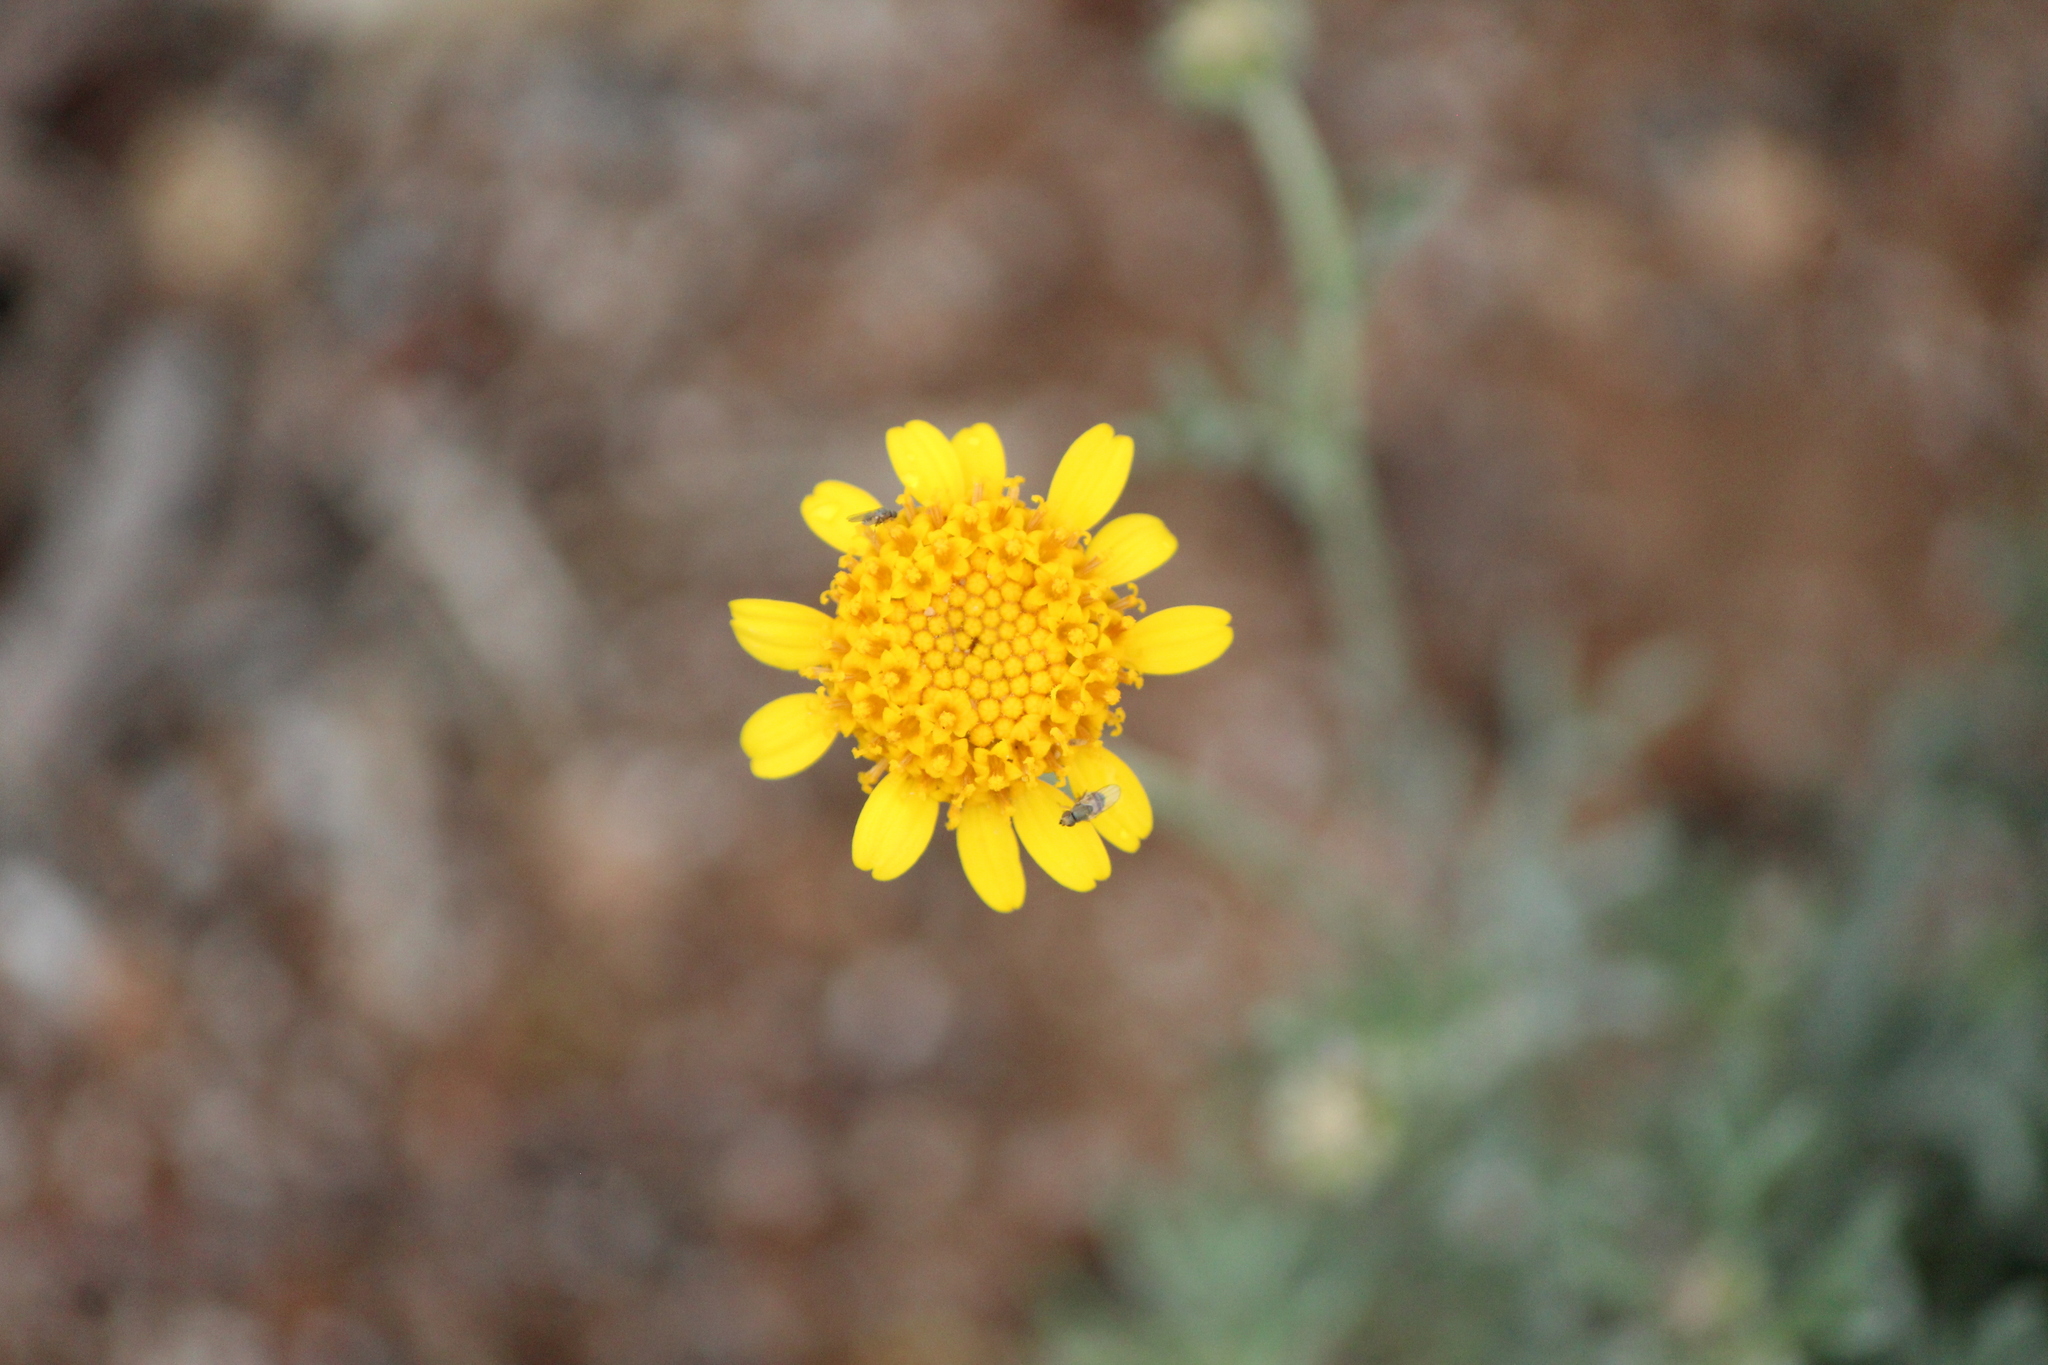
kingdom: Plantae
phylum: Tracheophyta
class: Magnoliopsida
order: Asterales
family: Asteraceae
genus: Picradeniopsis
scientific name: Picradeniopsis pringlei
